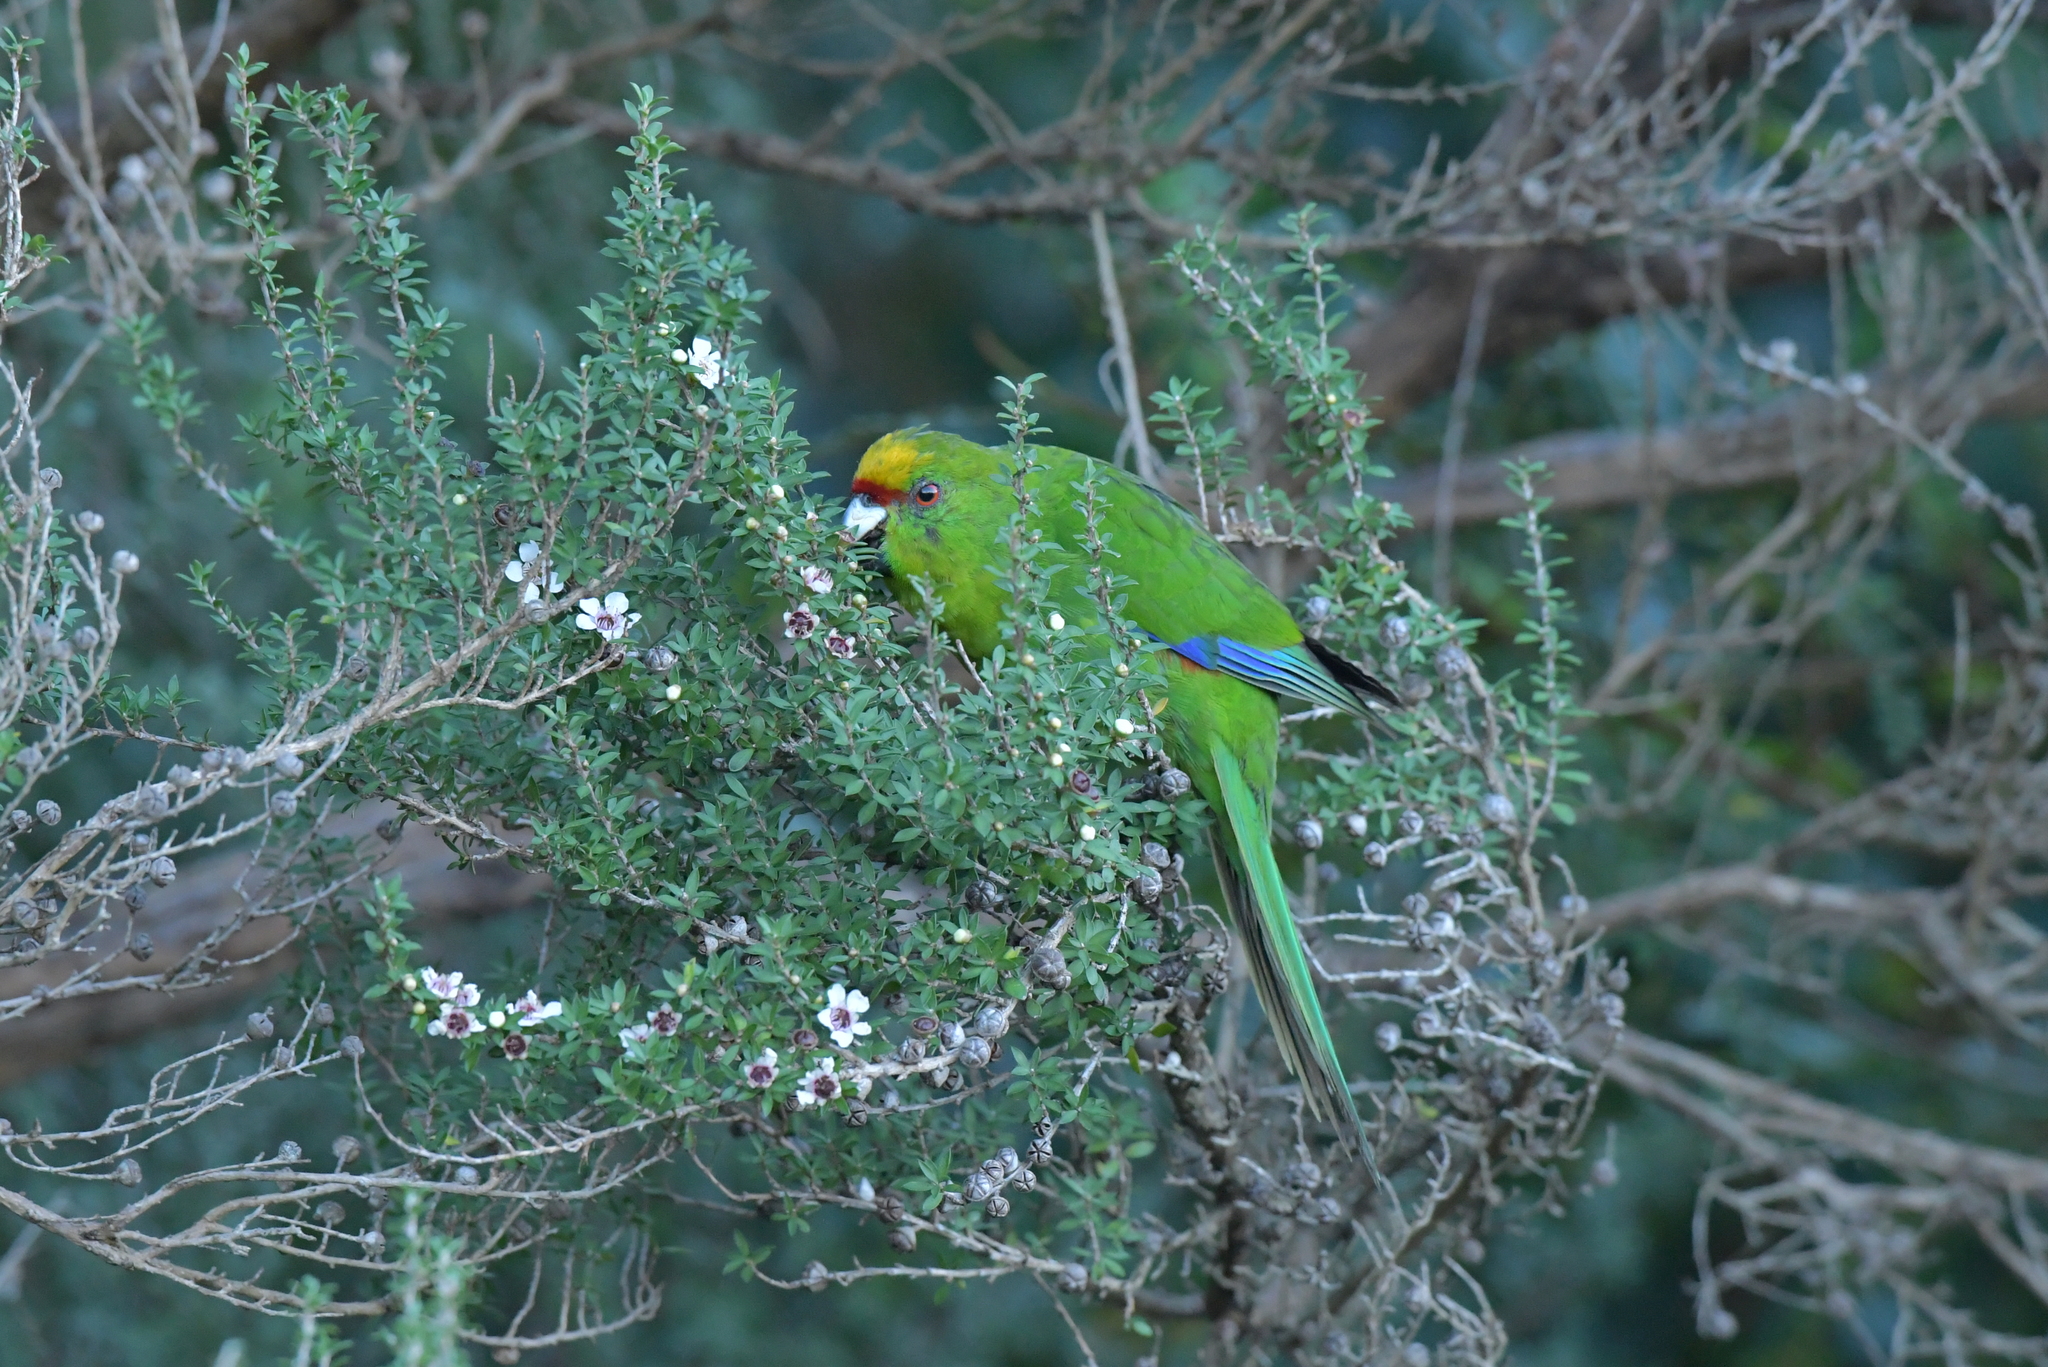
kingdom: Animalia
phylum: Chordata
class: Aves
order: Psittaciformes
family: Psittacidae
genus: Cyanoramphus
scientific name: Cyanoramphus auriceps
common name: Yellow-crowned parakeet
